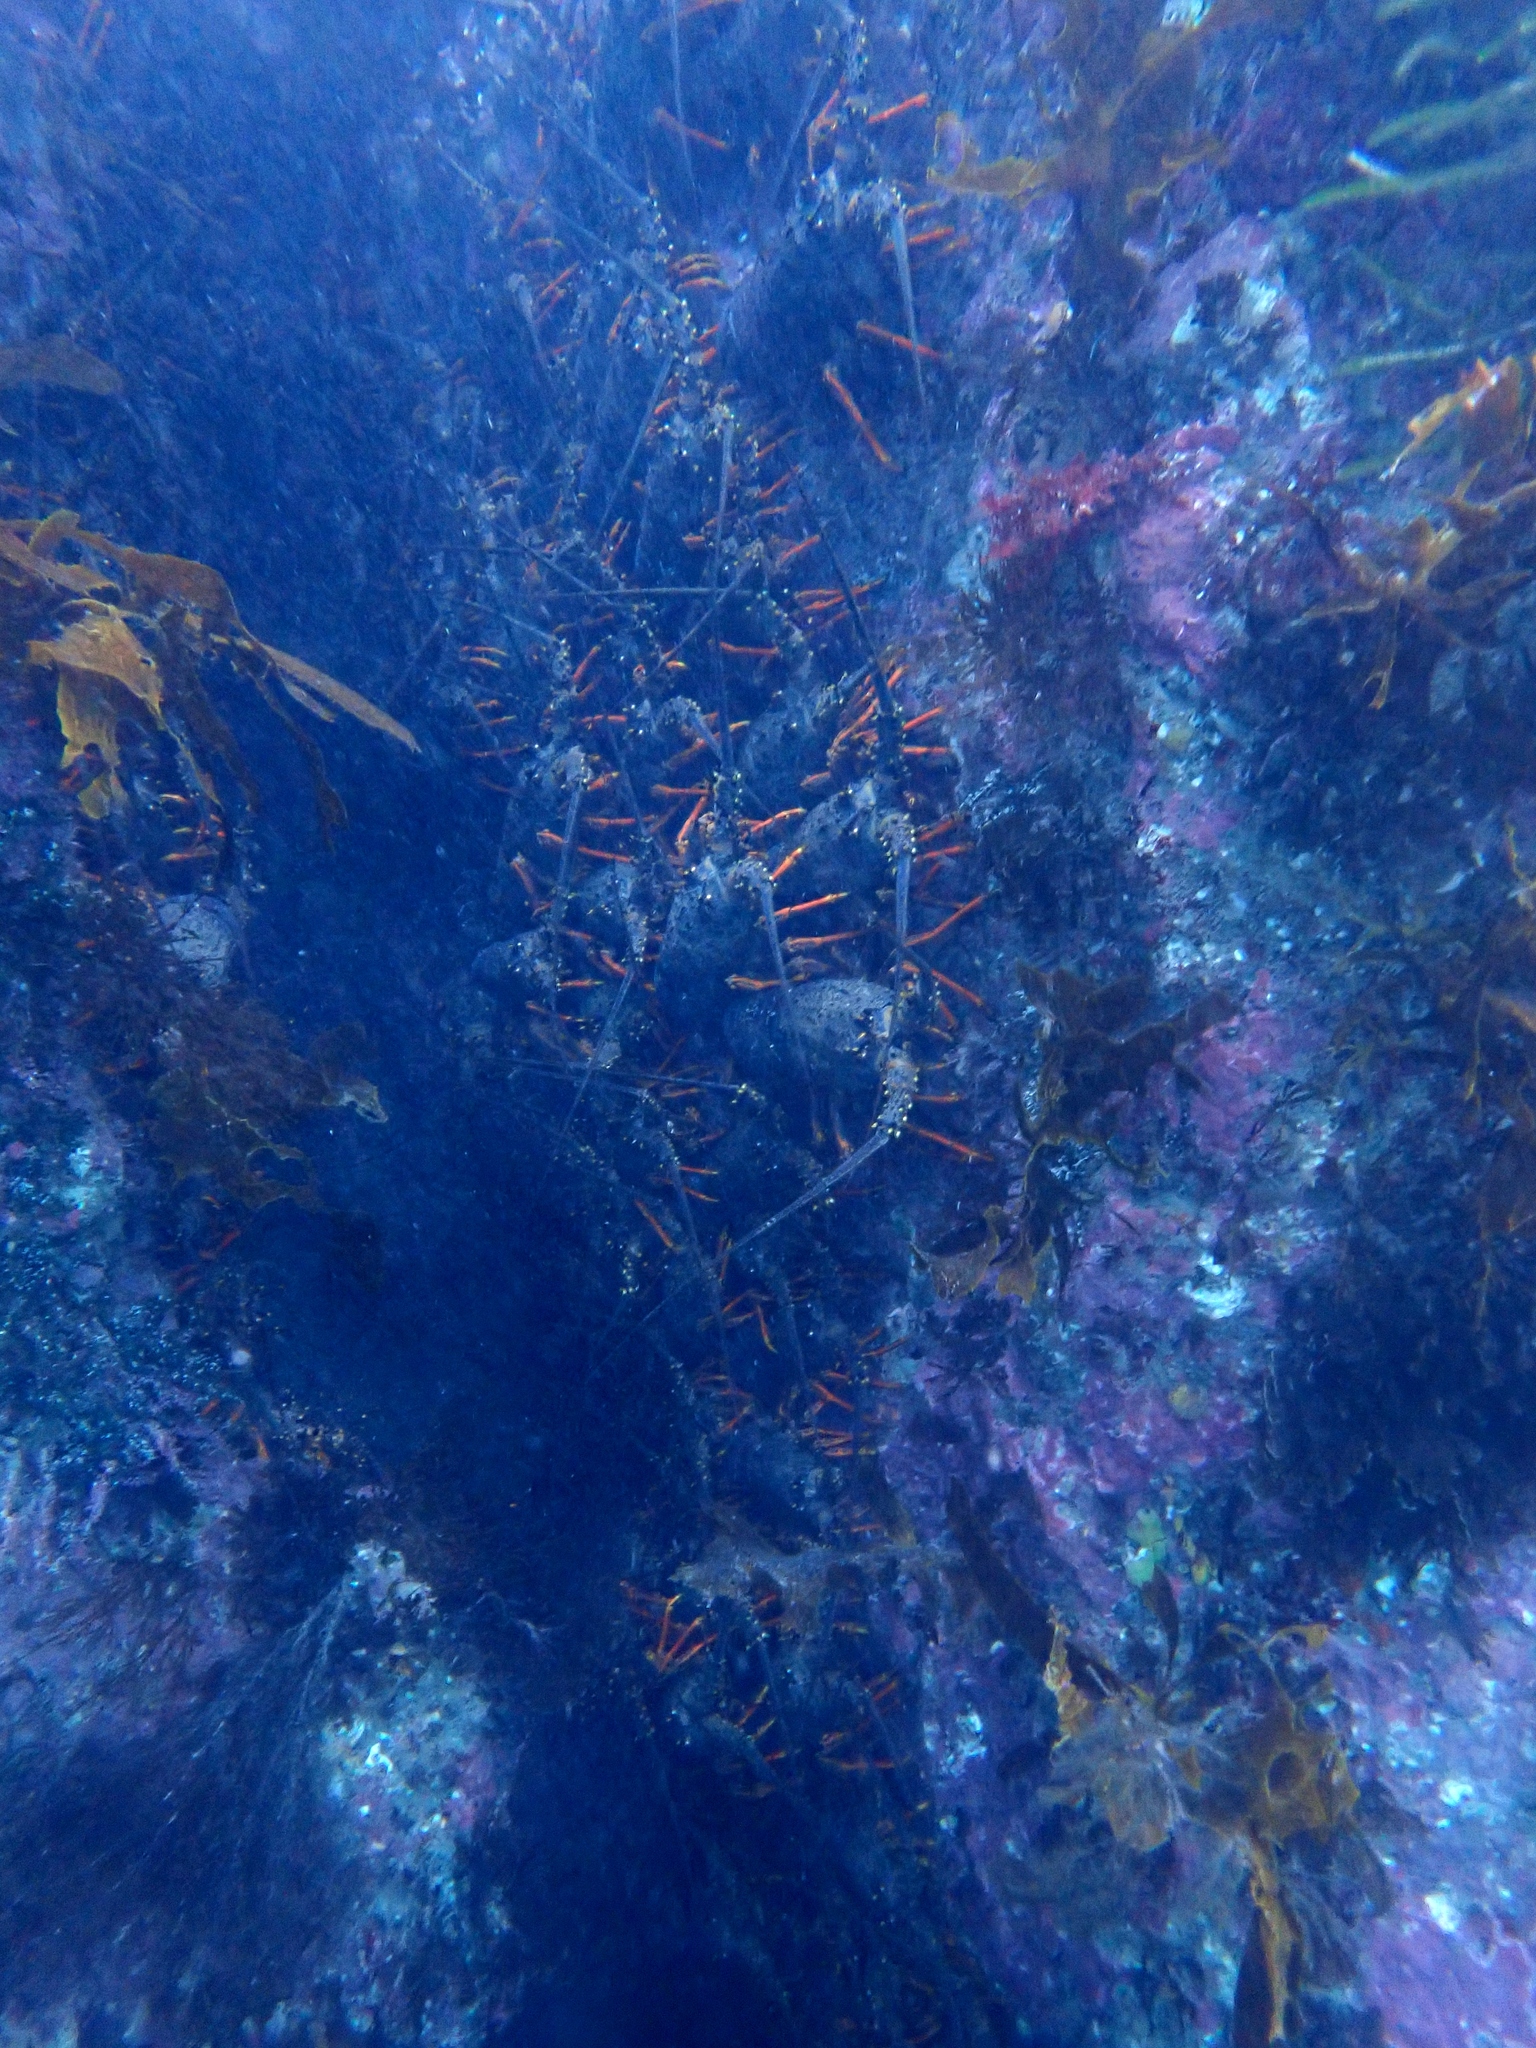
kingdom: Animalia
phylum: Arthropoda
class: Malacostraca
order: Decapoda
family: Palinuridae
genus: Jasus
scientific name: Jasus edwardsii
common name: Red rock lobster
